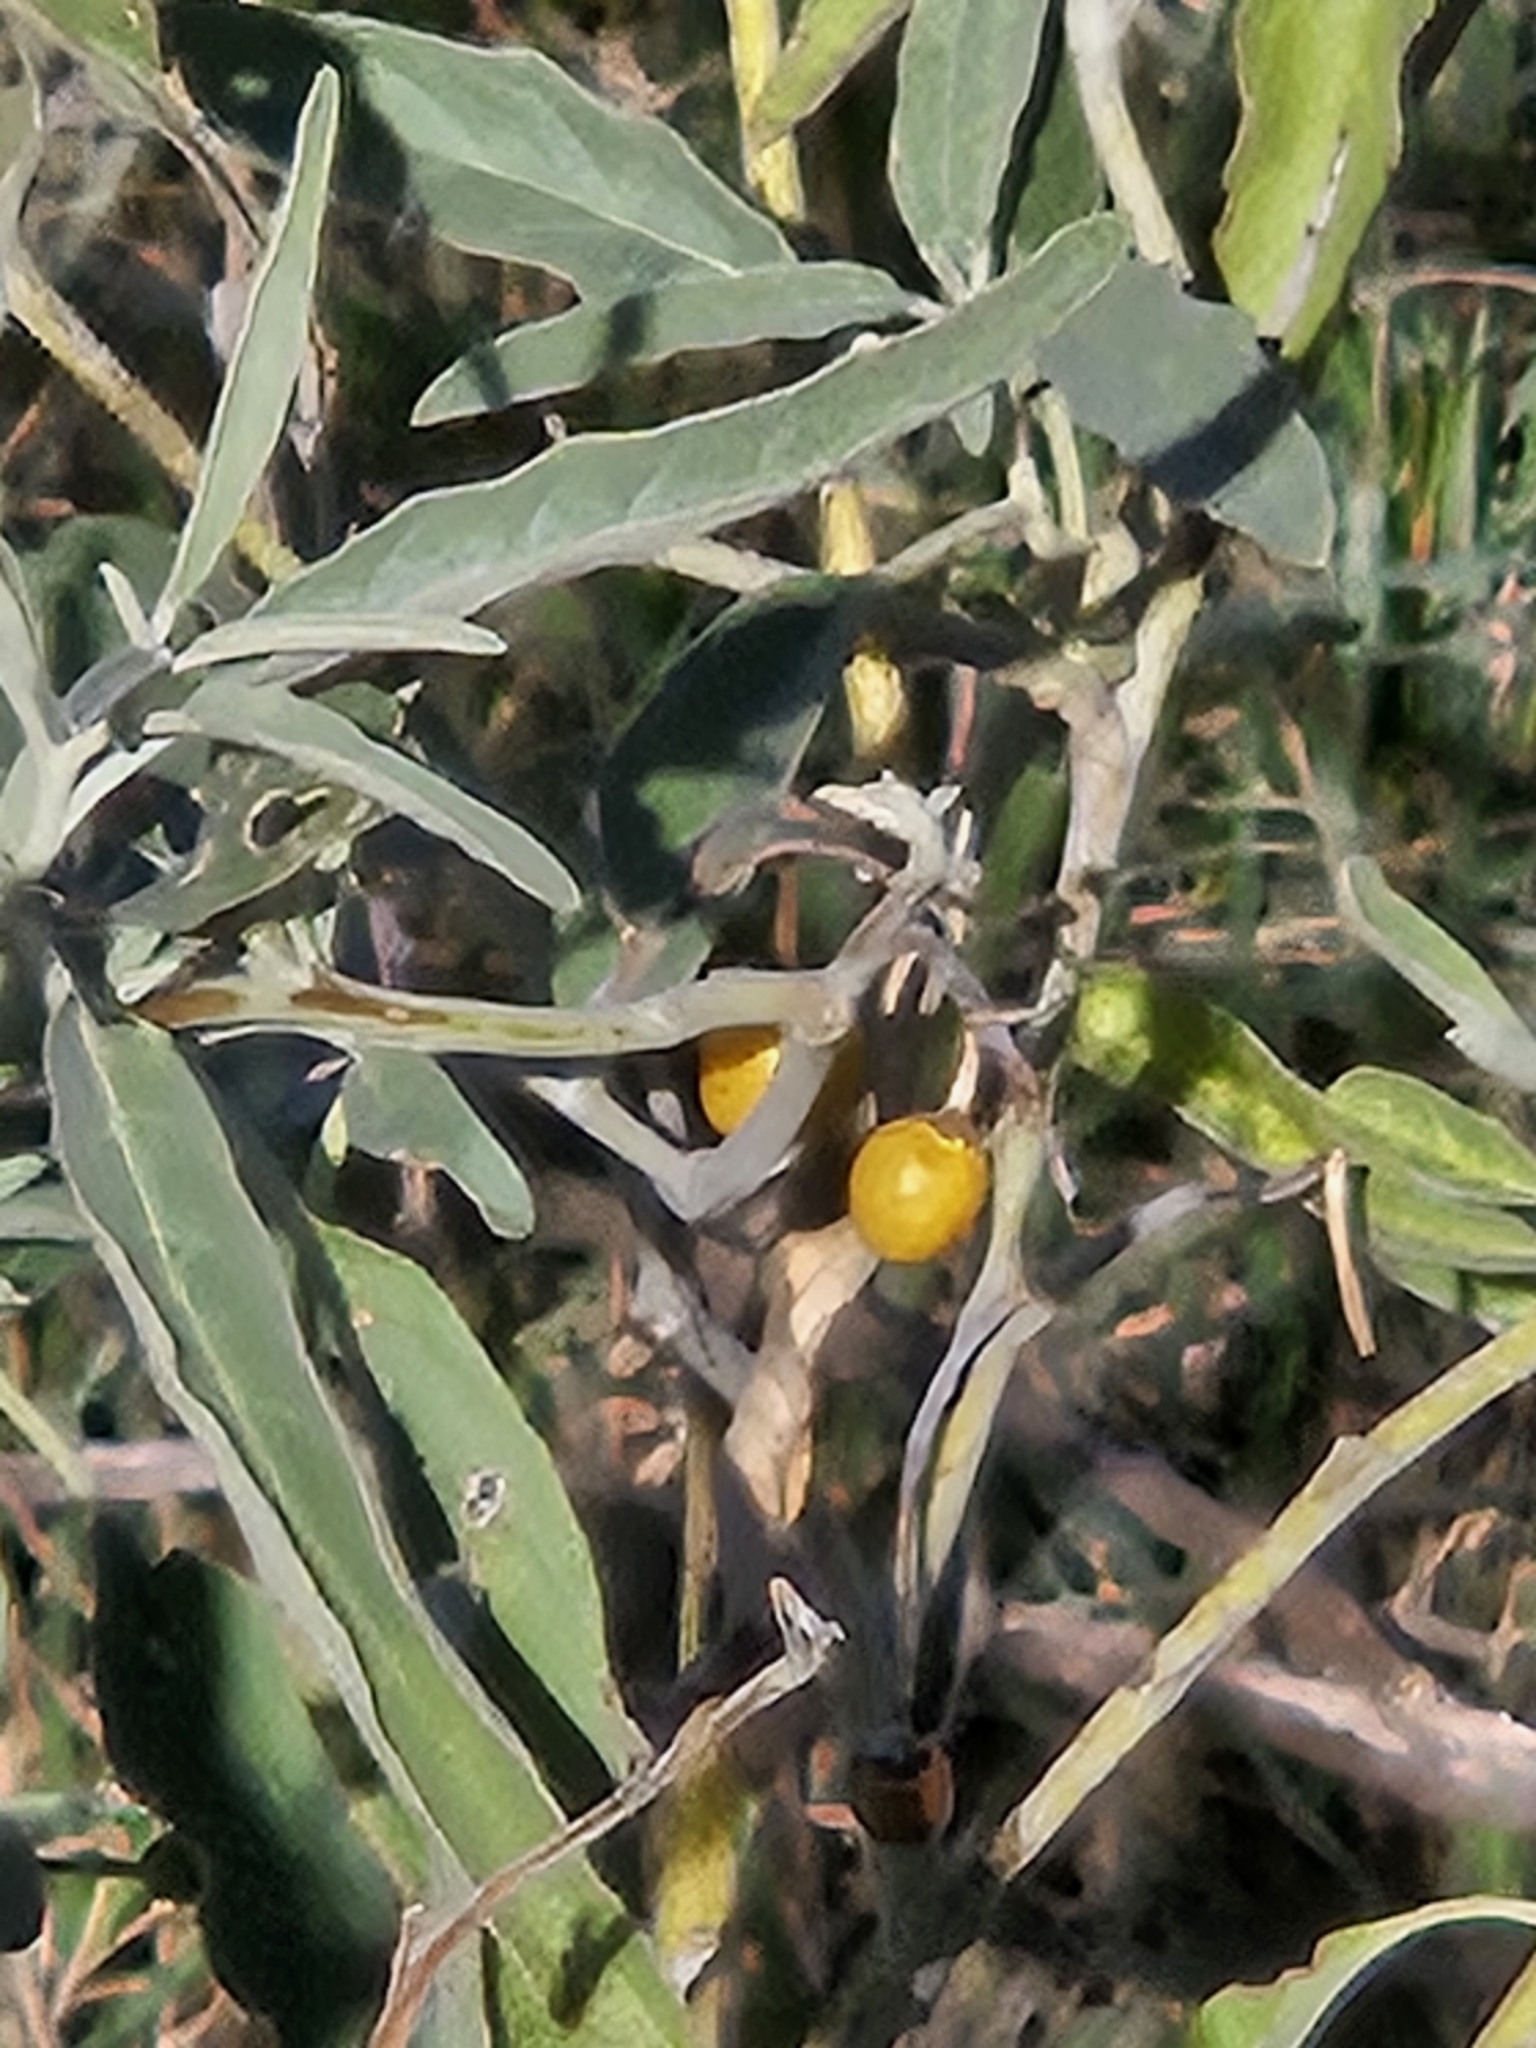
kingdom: Plantae
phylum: Tracheophyta
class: Magnoliopsida
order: Solanales
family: Solanaceae
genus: Solanum
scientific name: Solanum elaeagnifolium
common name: Silverleaf nightshade
